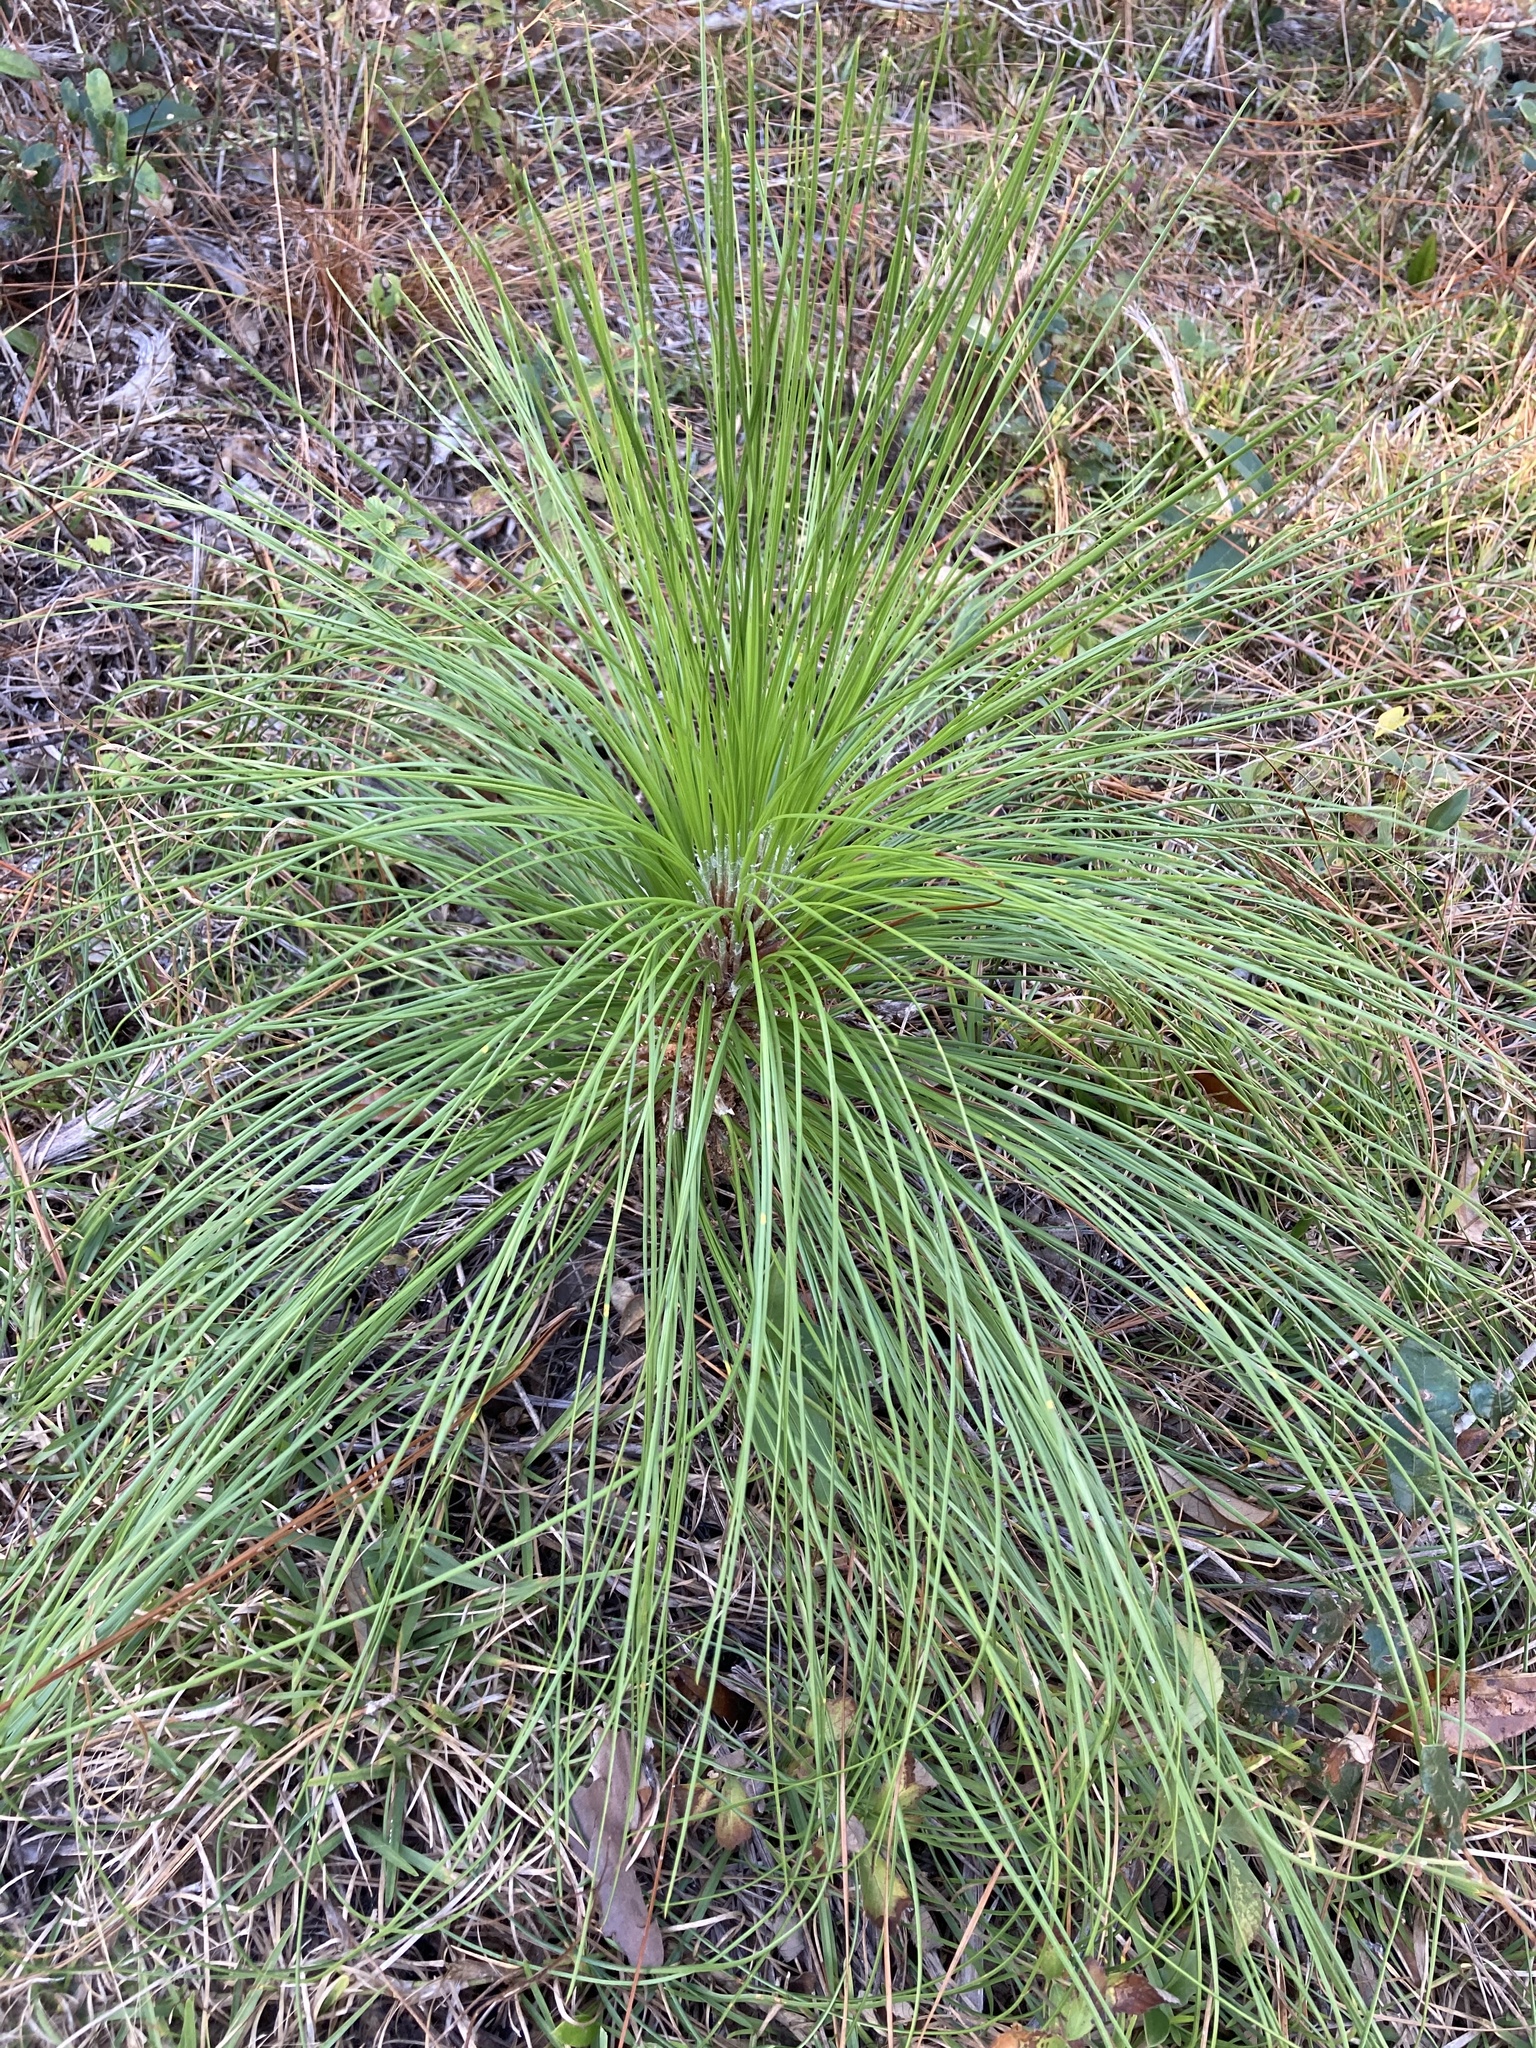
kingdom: Plantae
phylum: Tracheophyta
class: Pinopsida
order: Pinales
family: Pinaceae
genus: Pinus
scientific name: Pinus palustris
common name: Longleaf pine
